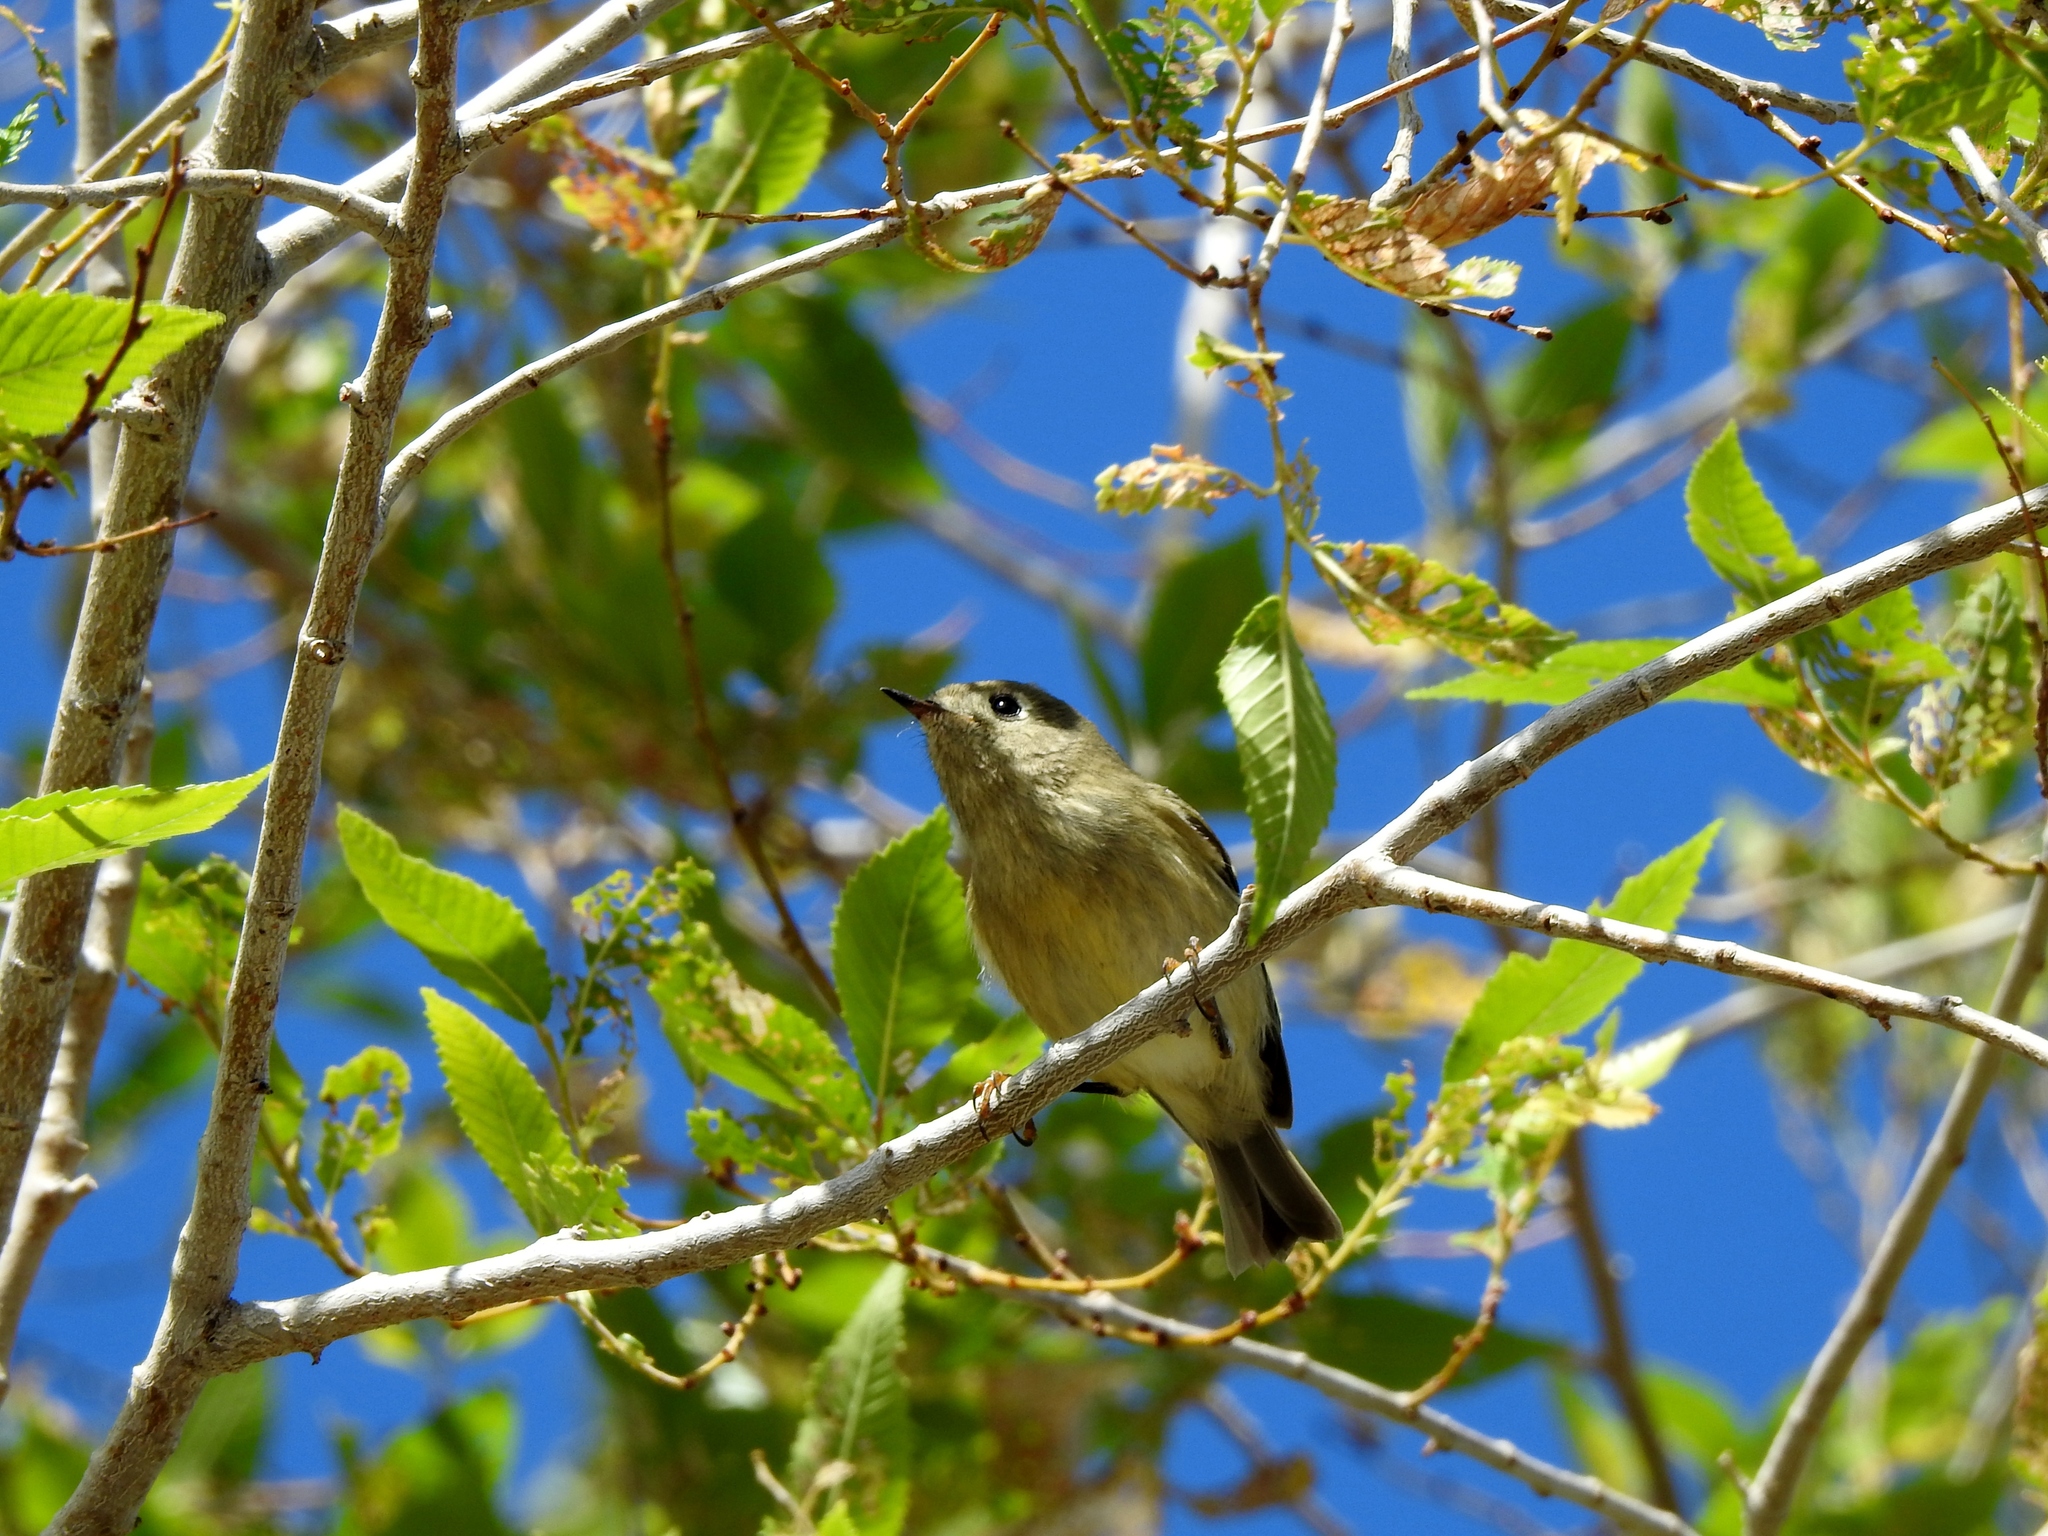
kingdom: Animalia
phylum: Chordata
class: Aves
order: Passeriformes
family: Regulidae
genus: Regulus
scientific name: Regulus calendula
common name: Ruby-crowned kinglet
